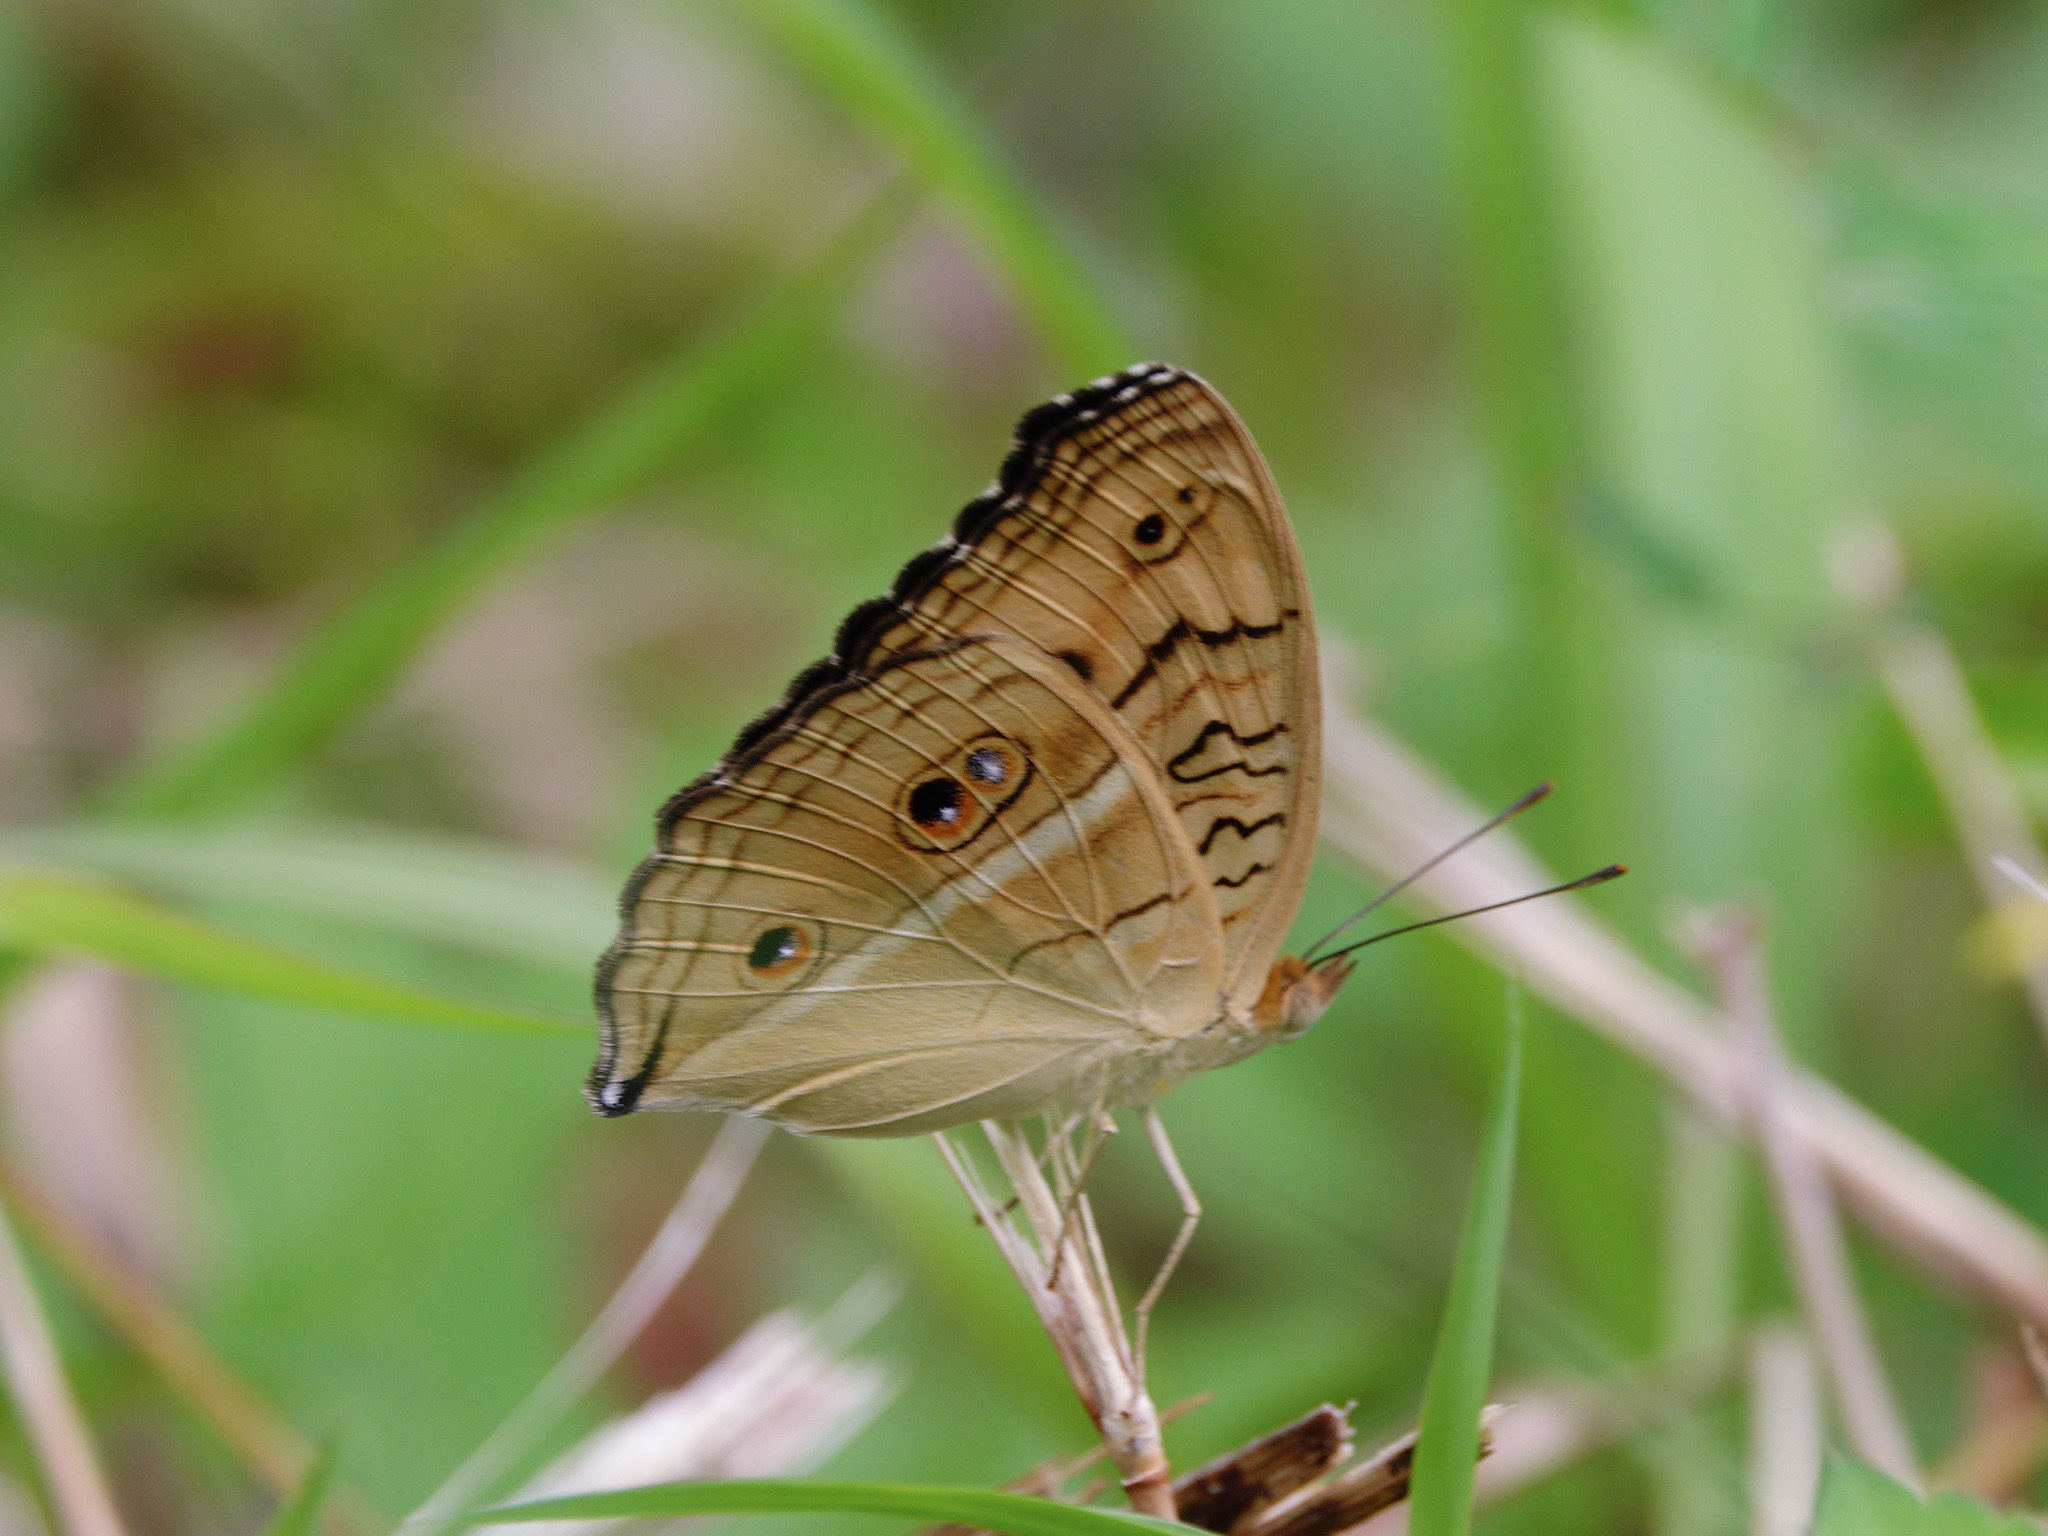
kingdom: Animalia
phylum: Arthropoda
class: Insecta
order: Lepidoptera
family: Nymphalidae
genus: Junonia
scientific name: Junonia almana
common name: Peacock pansy
